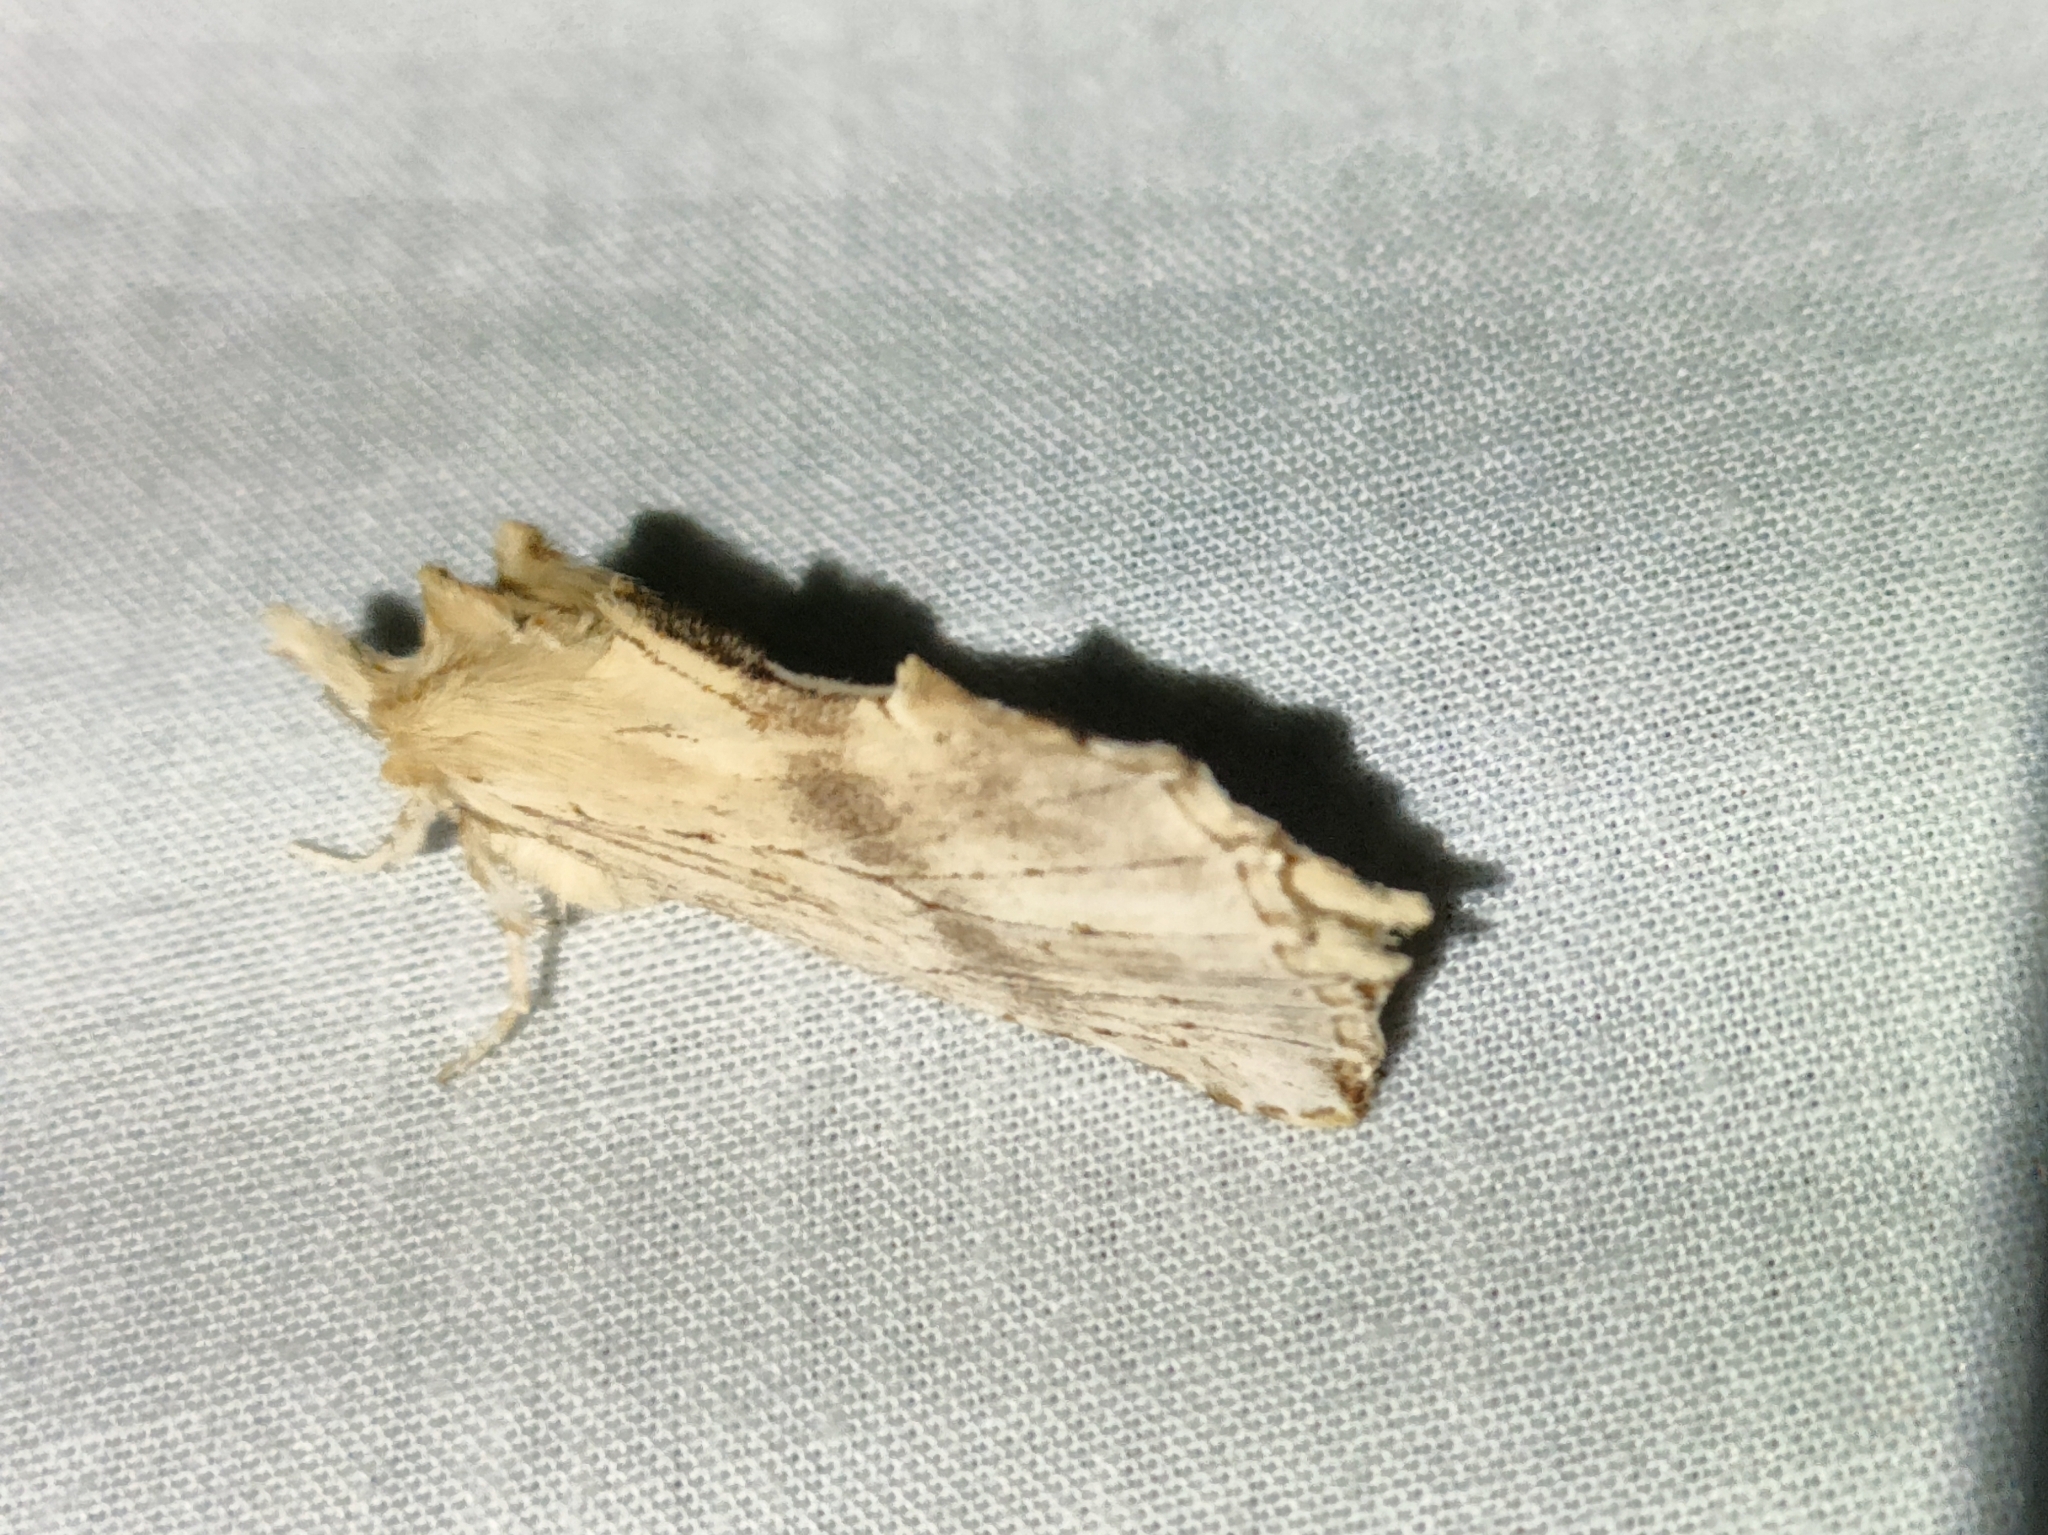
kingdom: Animalia
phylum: Arthropoda
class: Insecta
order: Lepidoptera
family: Notodontidae
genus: Pterostoma
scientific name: Pterostoma palpina
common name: Pale prominent
